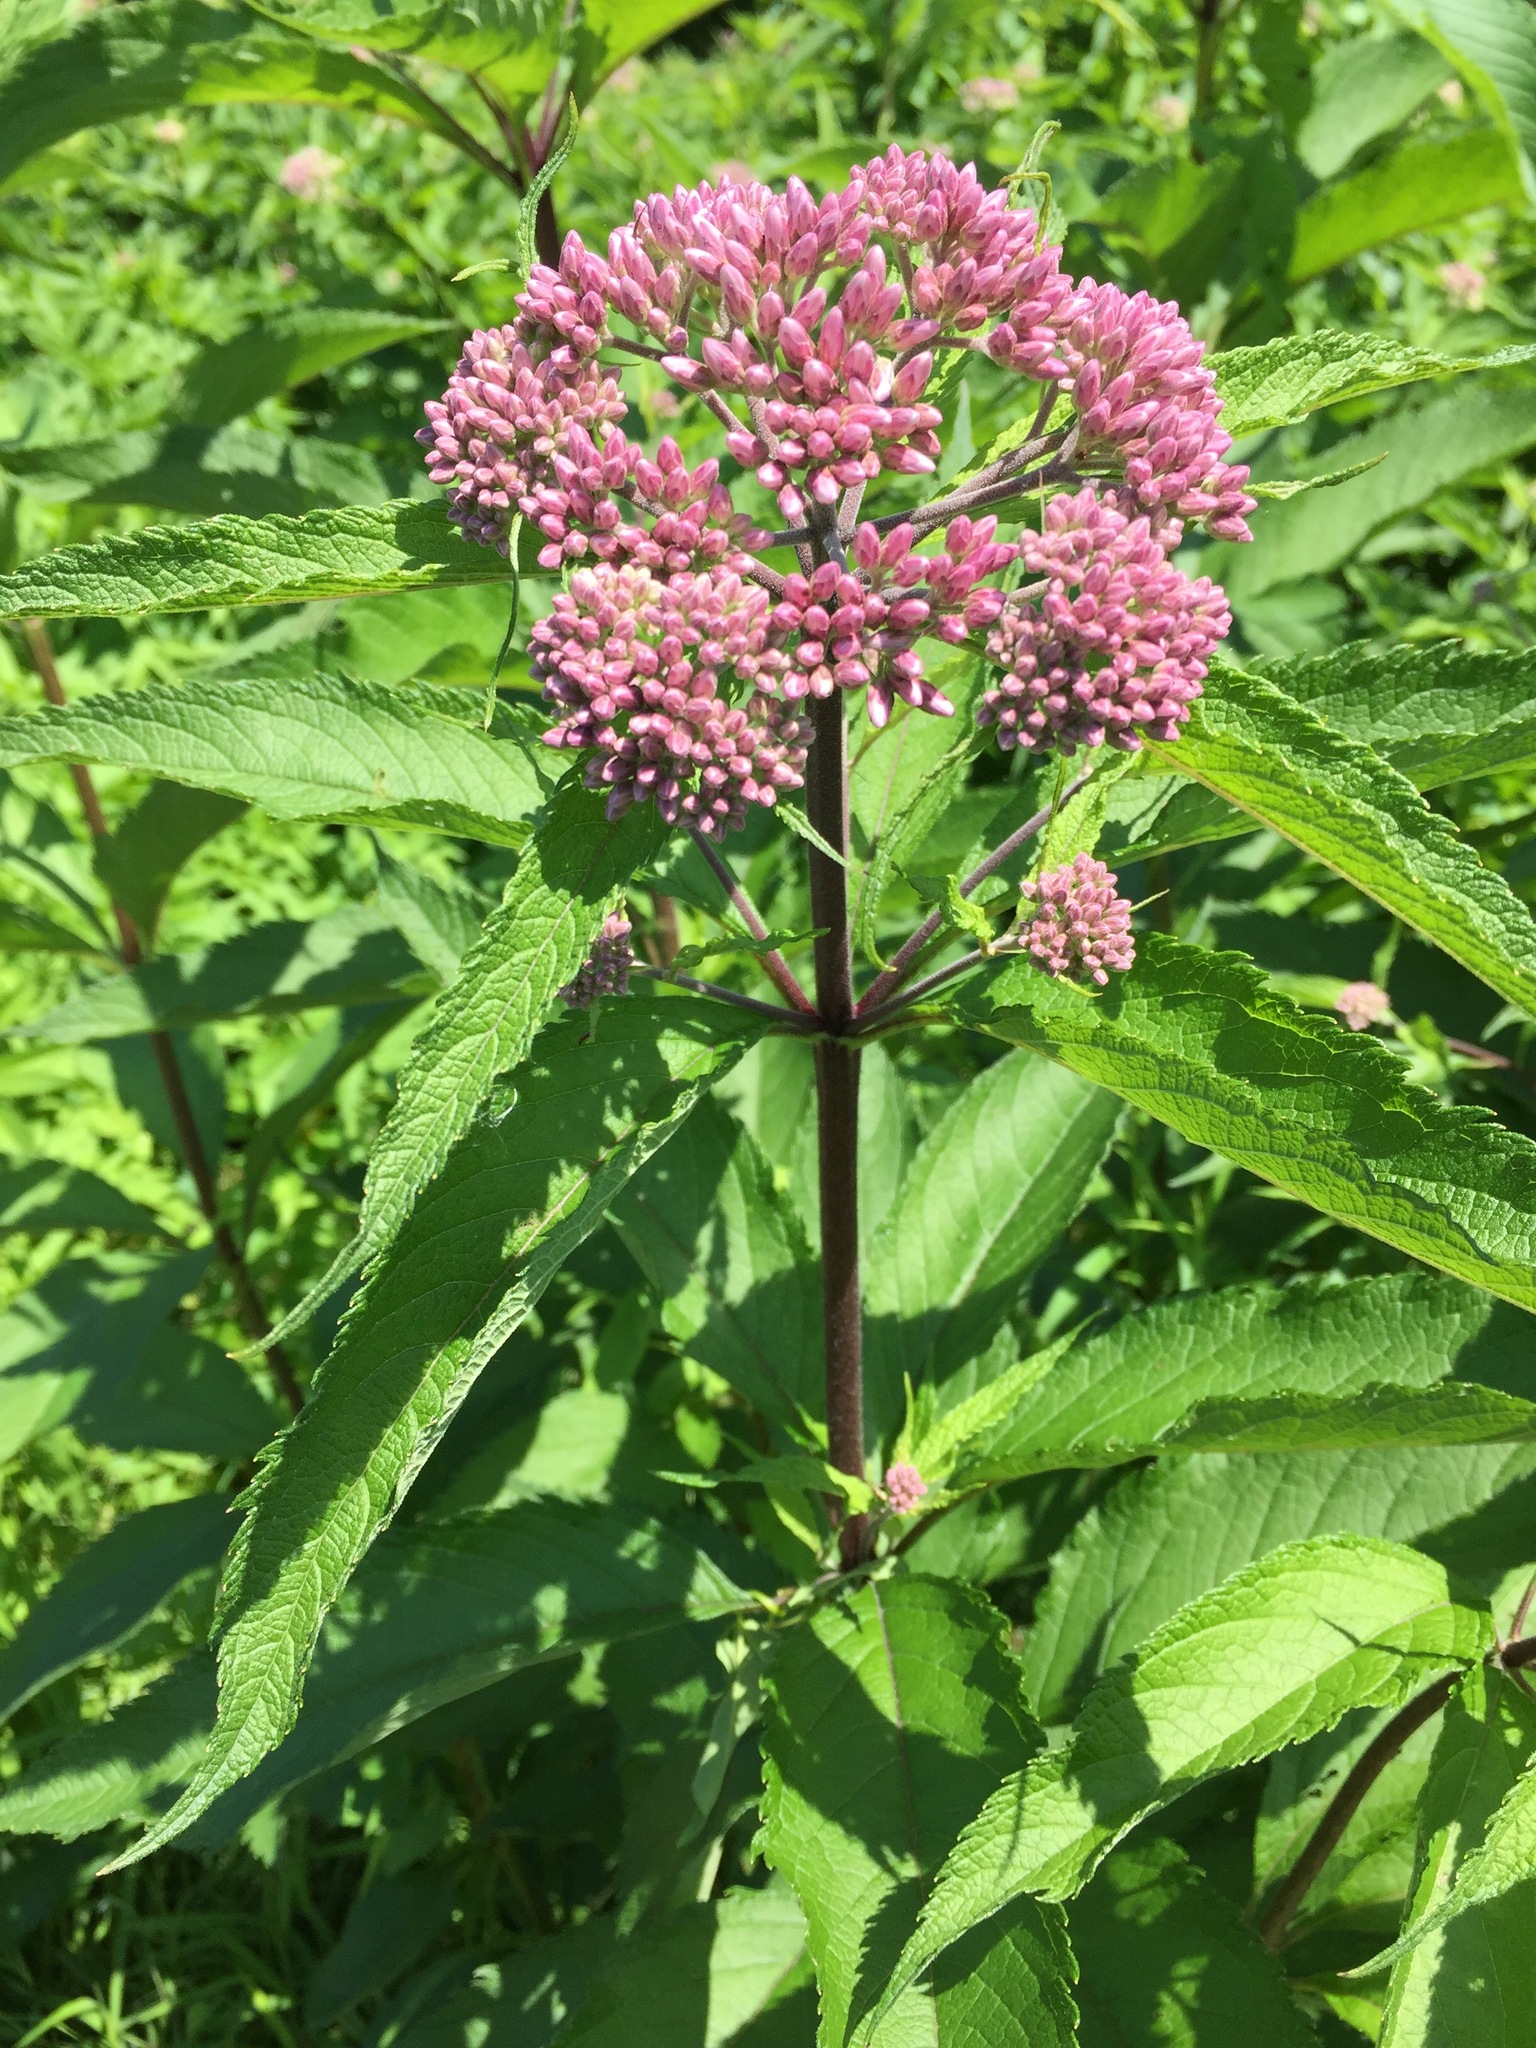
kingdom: Plantae
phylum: Tracheophyta
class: Magnoliopsida
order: Asterales
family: Asteraceae
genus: Eutrochium
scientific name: Eutrochium maculatum
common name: Spotted joe pye weed
